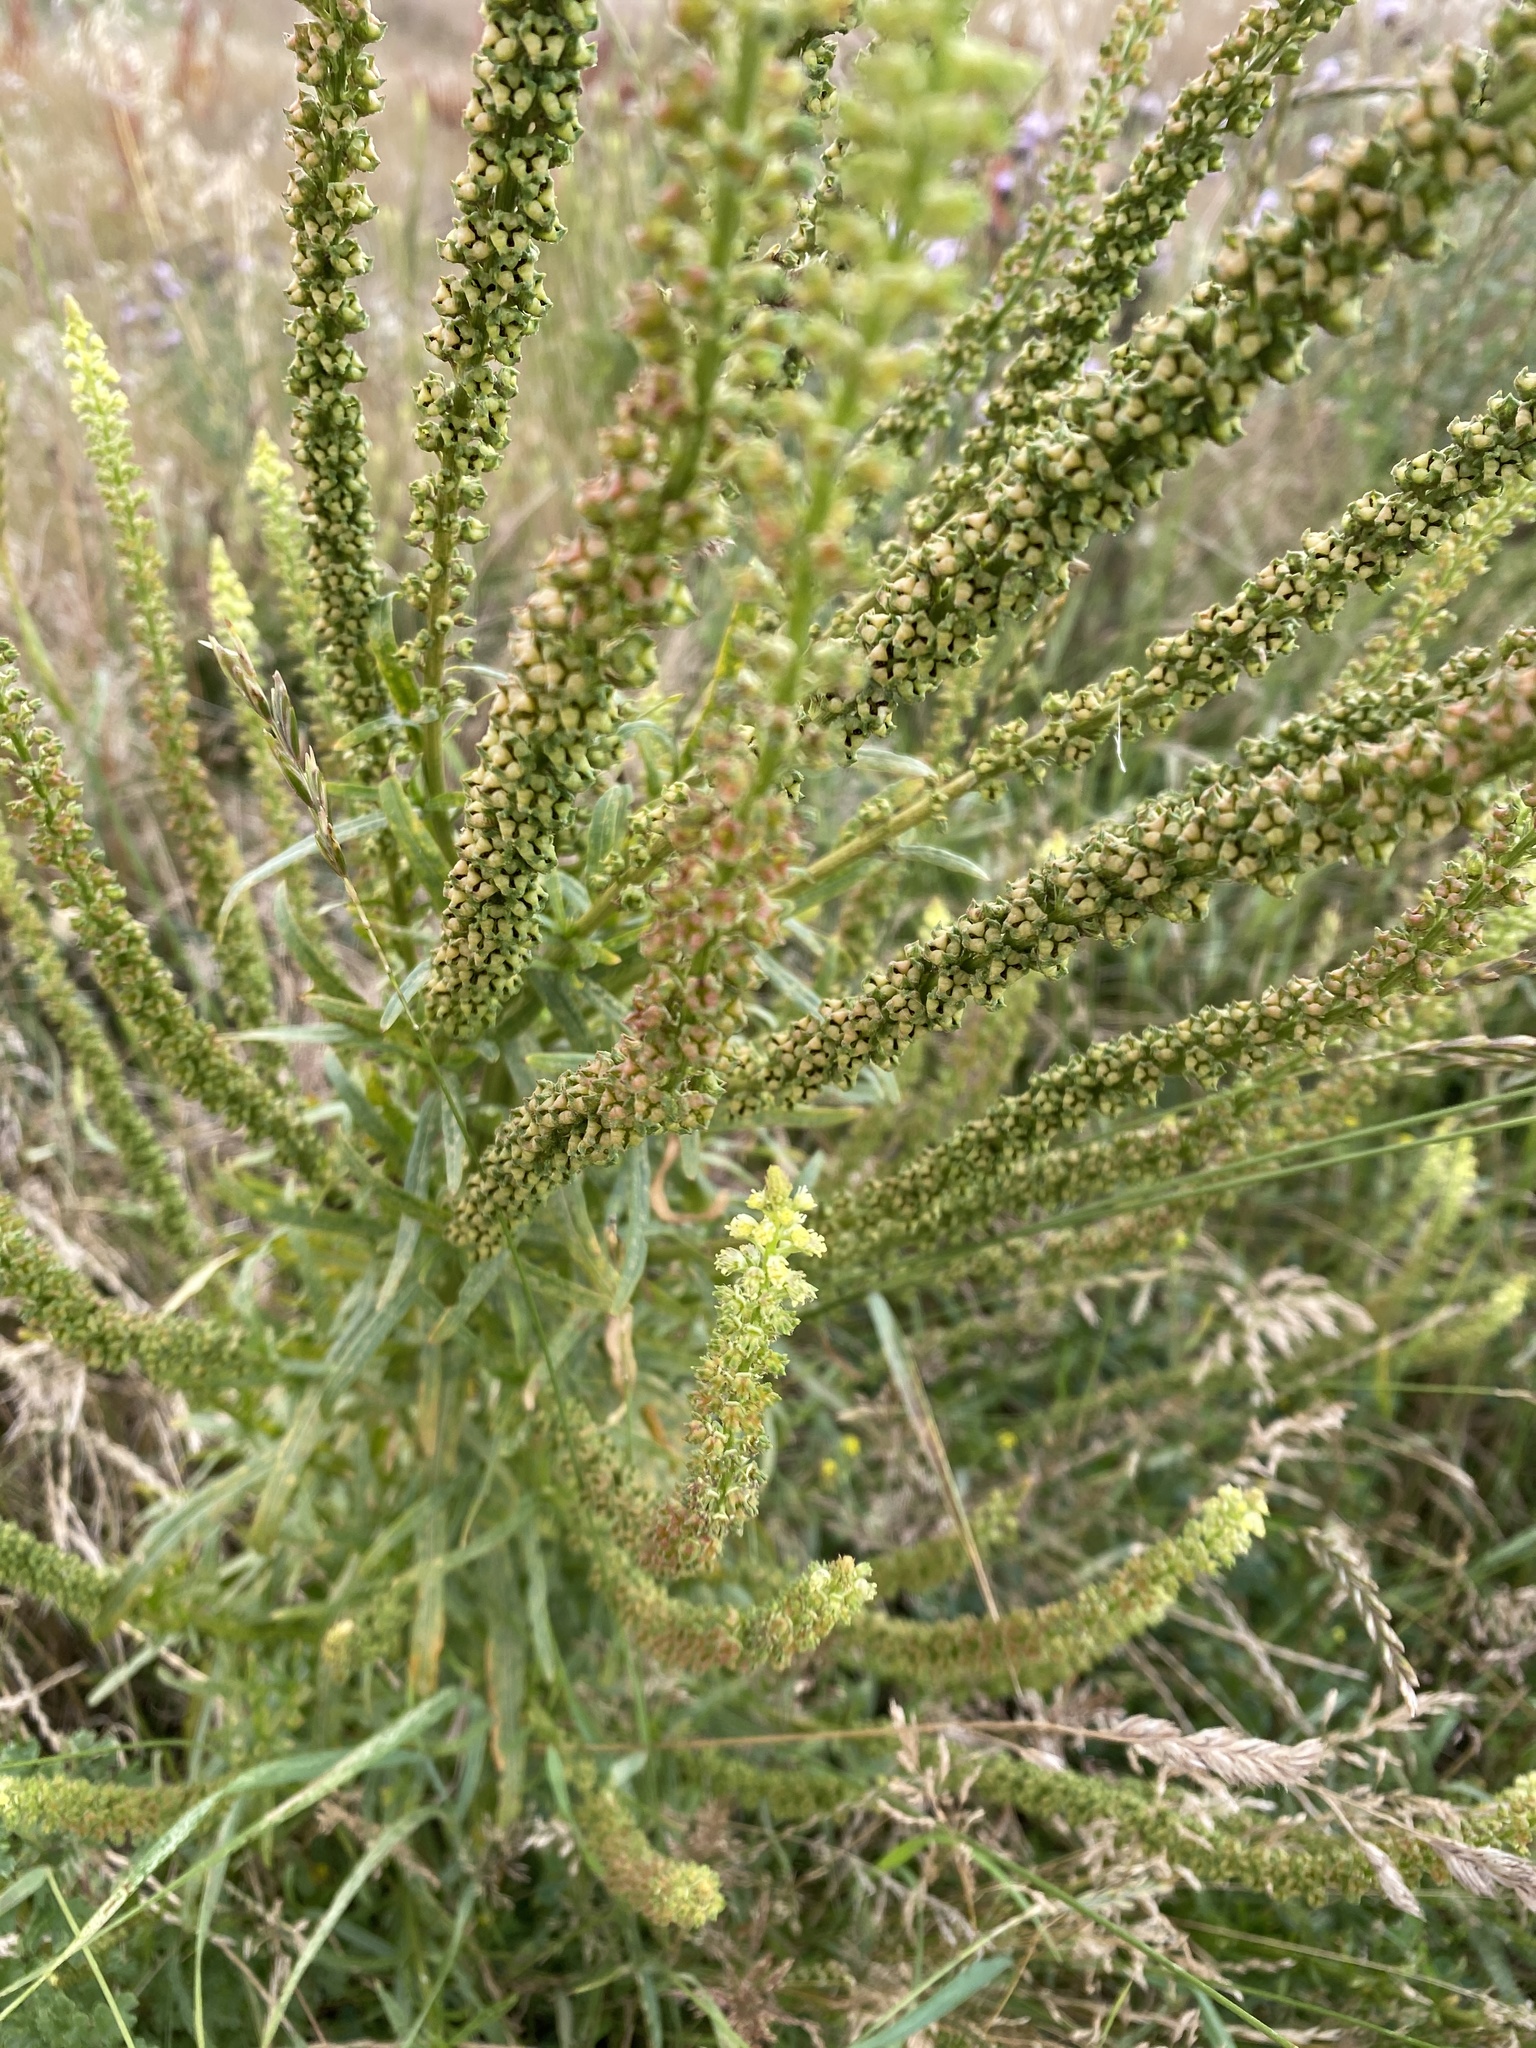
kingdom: Plantae
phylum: Tracheophyta
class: Magnoliopsida
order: Brassicales
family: Resedaceae
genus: Reseda
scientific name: Reseda luteola
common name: Weld
